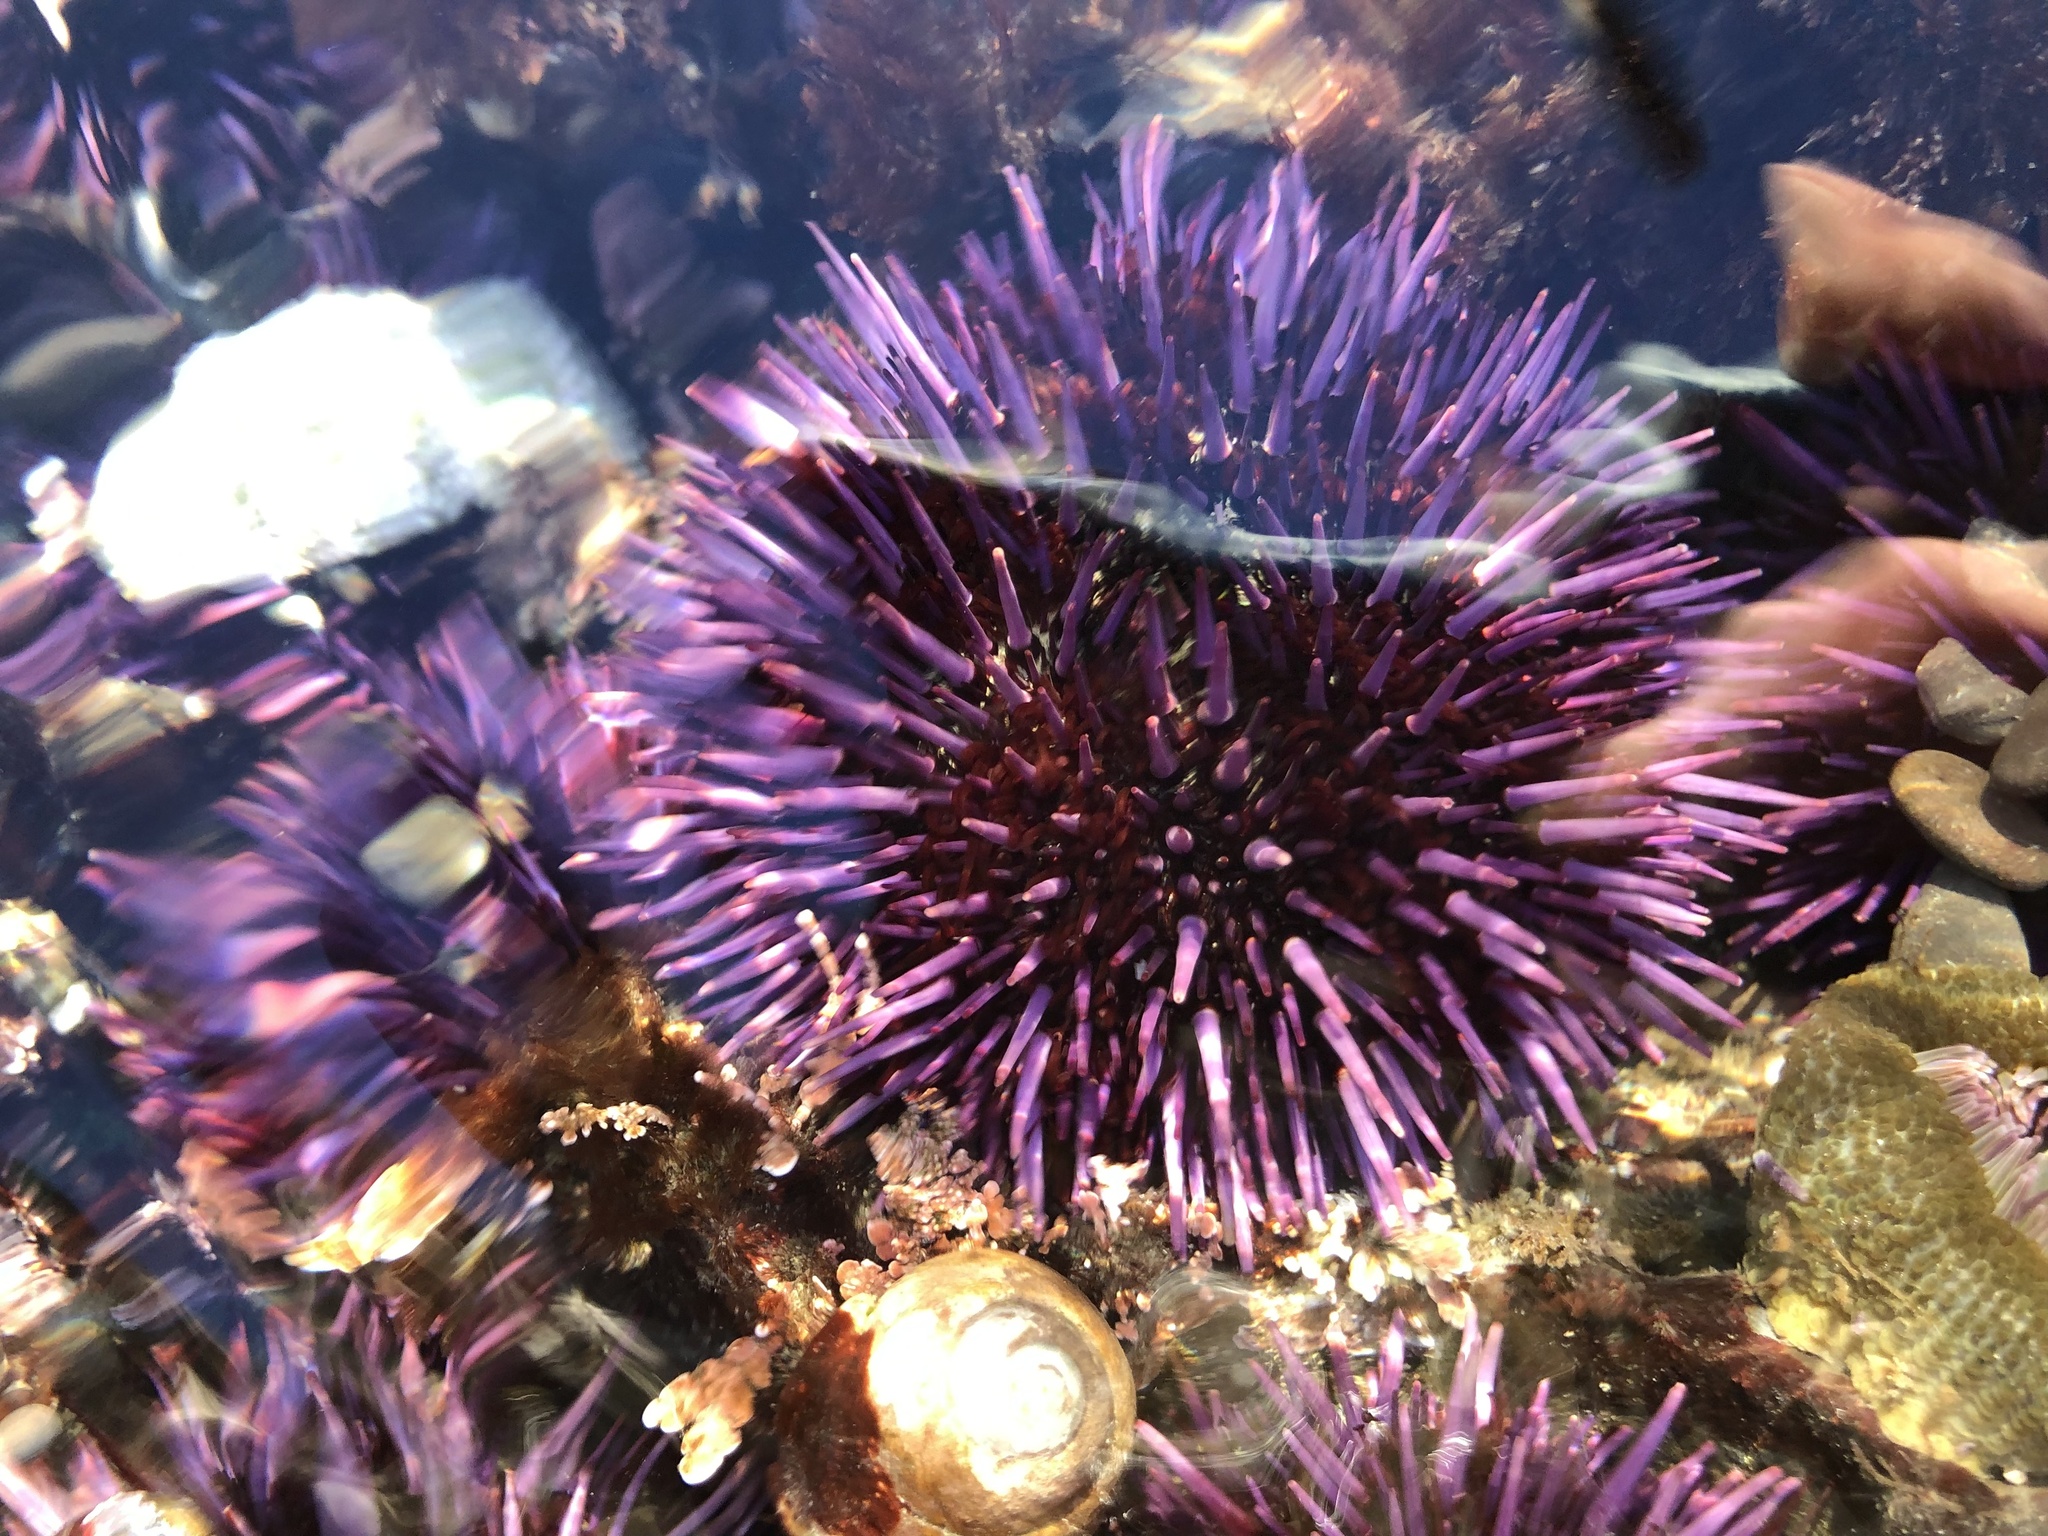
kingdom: Animalia
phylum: Echinodermata
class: Echinoidea
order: Camarodonta
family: Strongylocentrotidae
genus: Strongylocentrotus
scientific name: Strongylocentrotus purpuratus
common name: Purple sea urchin
